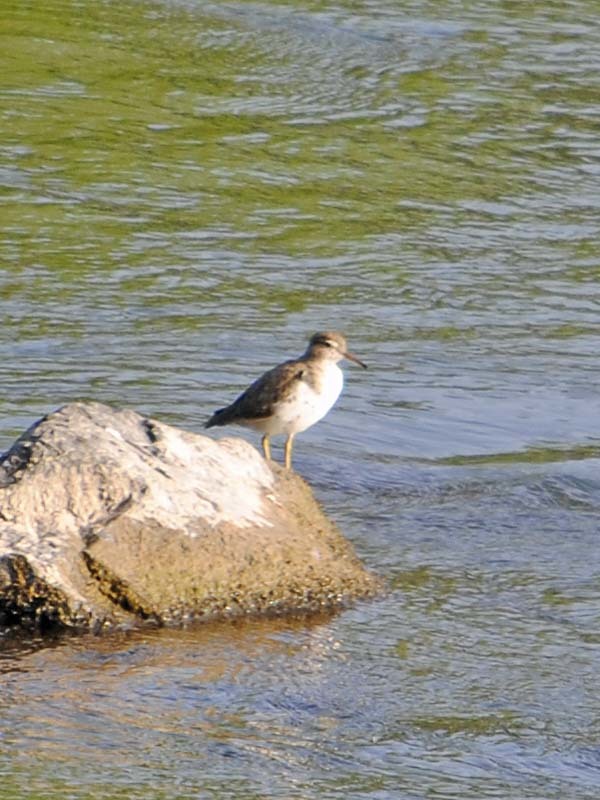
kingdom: Animalia
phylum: Chordata
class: Aves
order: Charadriiformes
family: Scolopacidae
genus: Actitis
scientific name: Actitis macularius
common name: Spotted sandpiper
